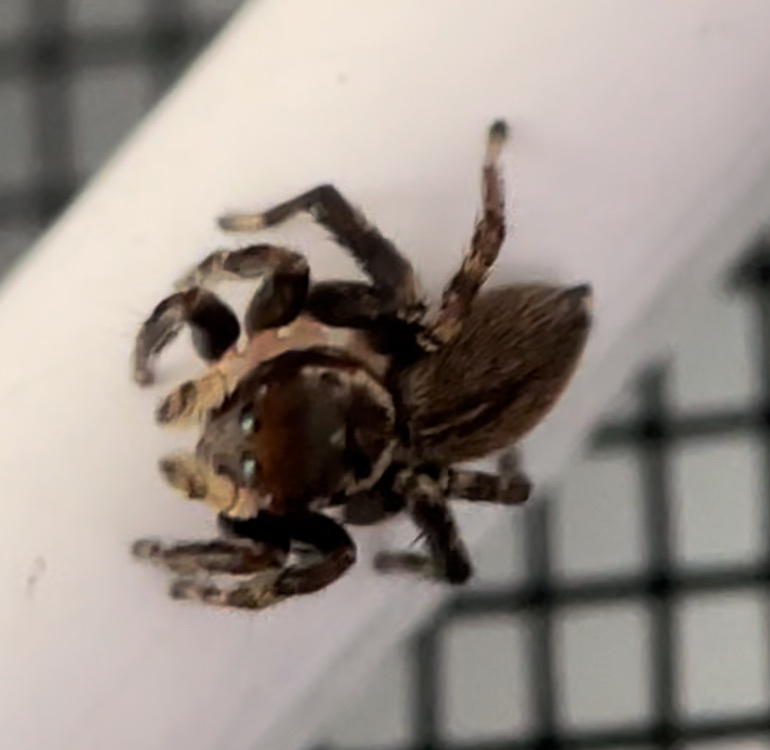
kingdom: Animalia
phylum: Arthropoda
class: Arachnida
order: Araneae
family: Salticidae
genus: Maratus
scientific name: Maratus griseus
